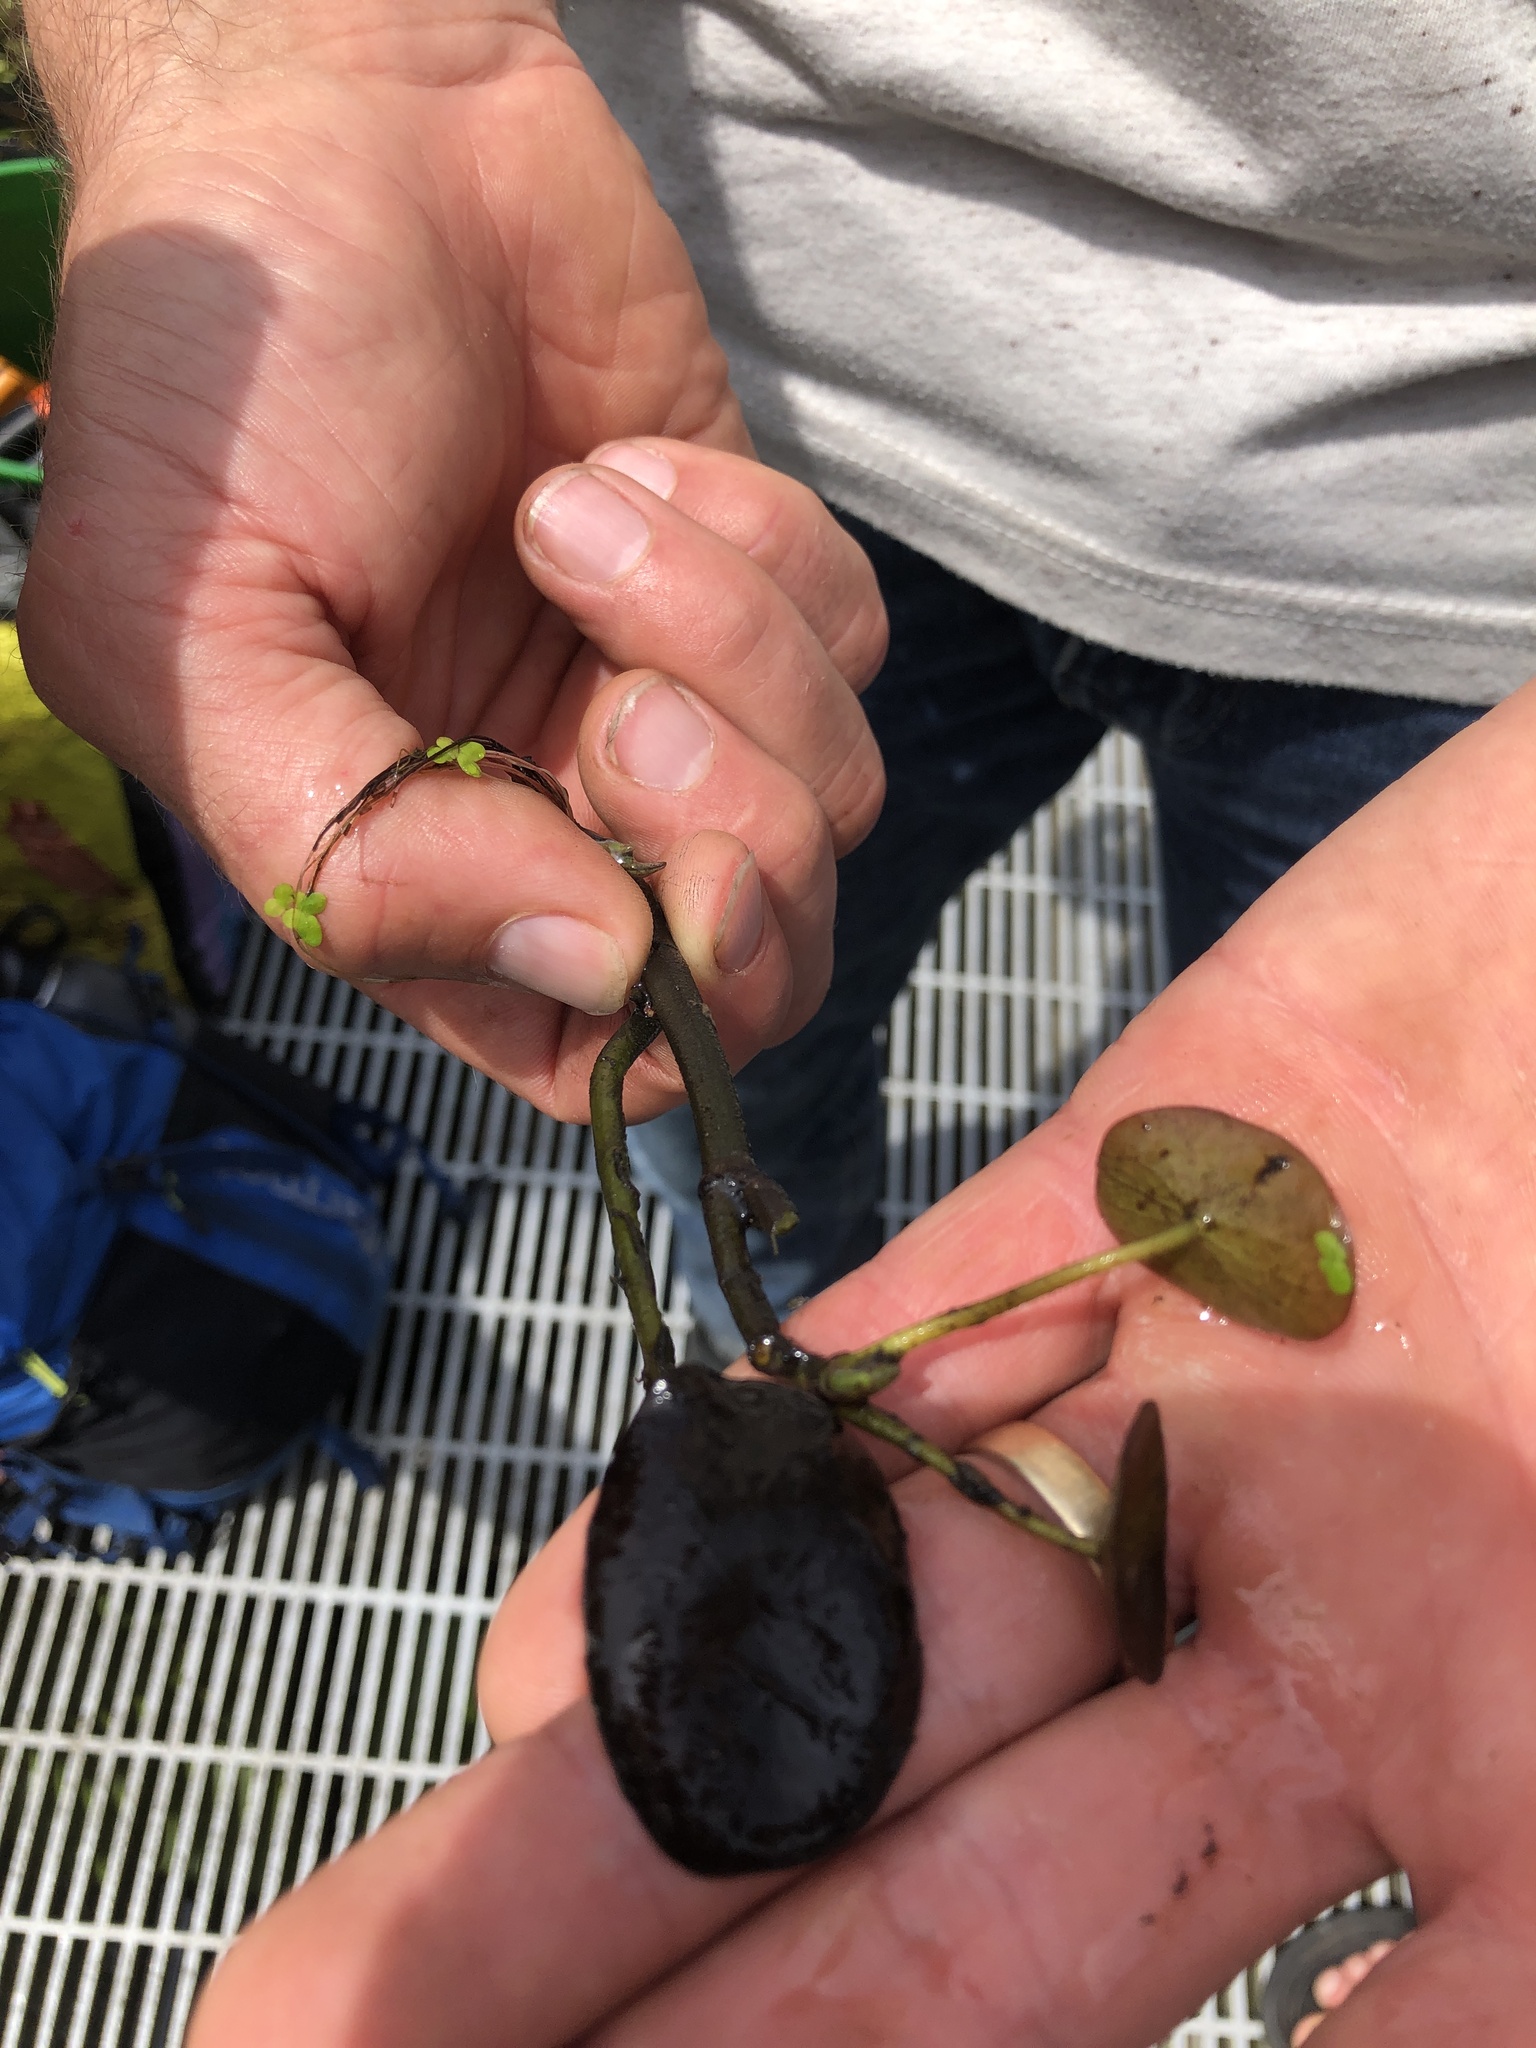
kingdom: Plantae
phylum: Tracheophyta
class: Magnoliopsida
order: Nymphaeales
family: Cabombaceae
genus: Brasenia
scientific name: Brasenia schreberi
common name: Water-shield
